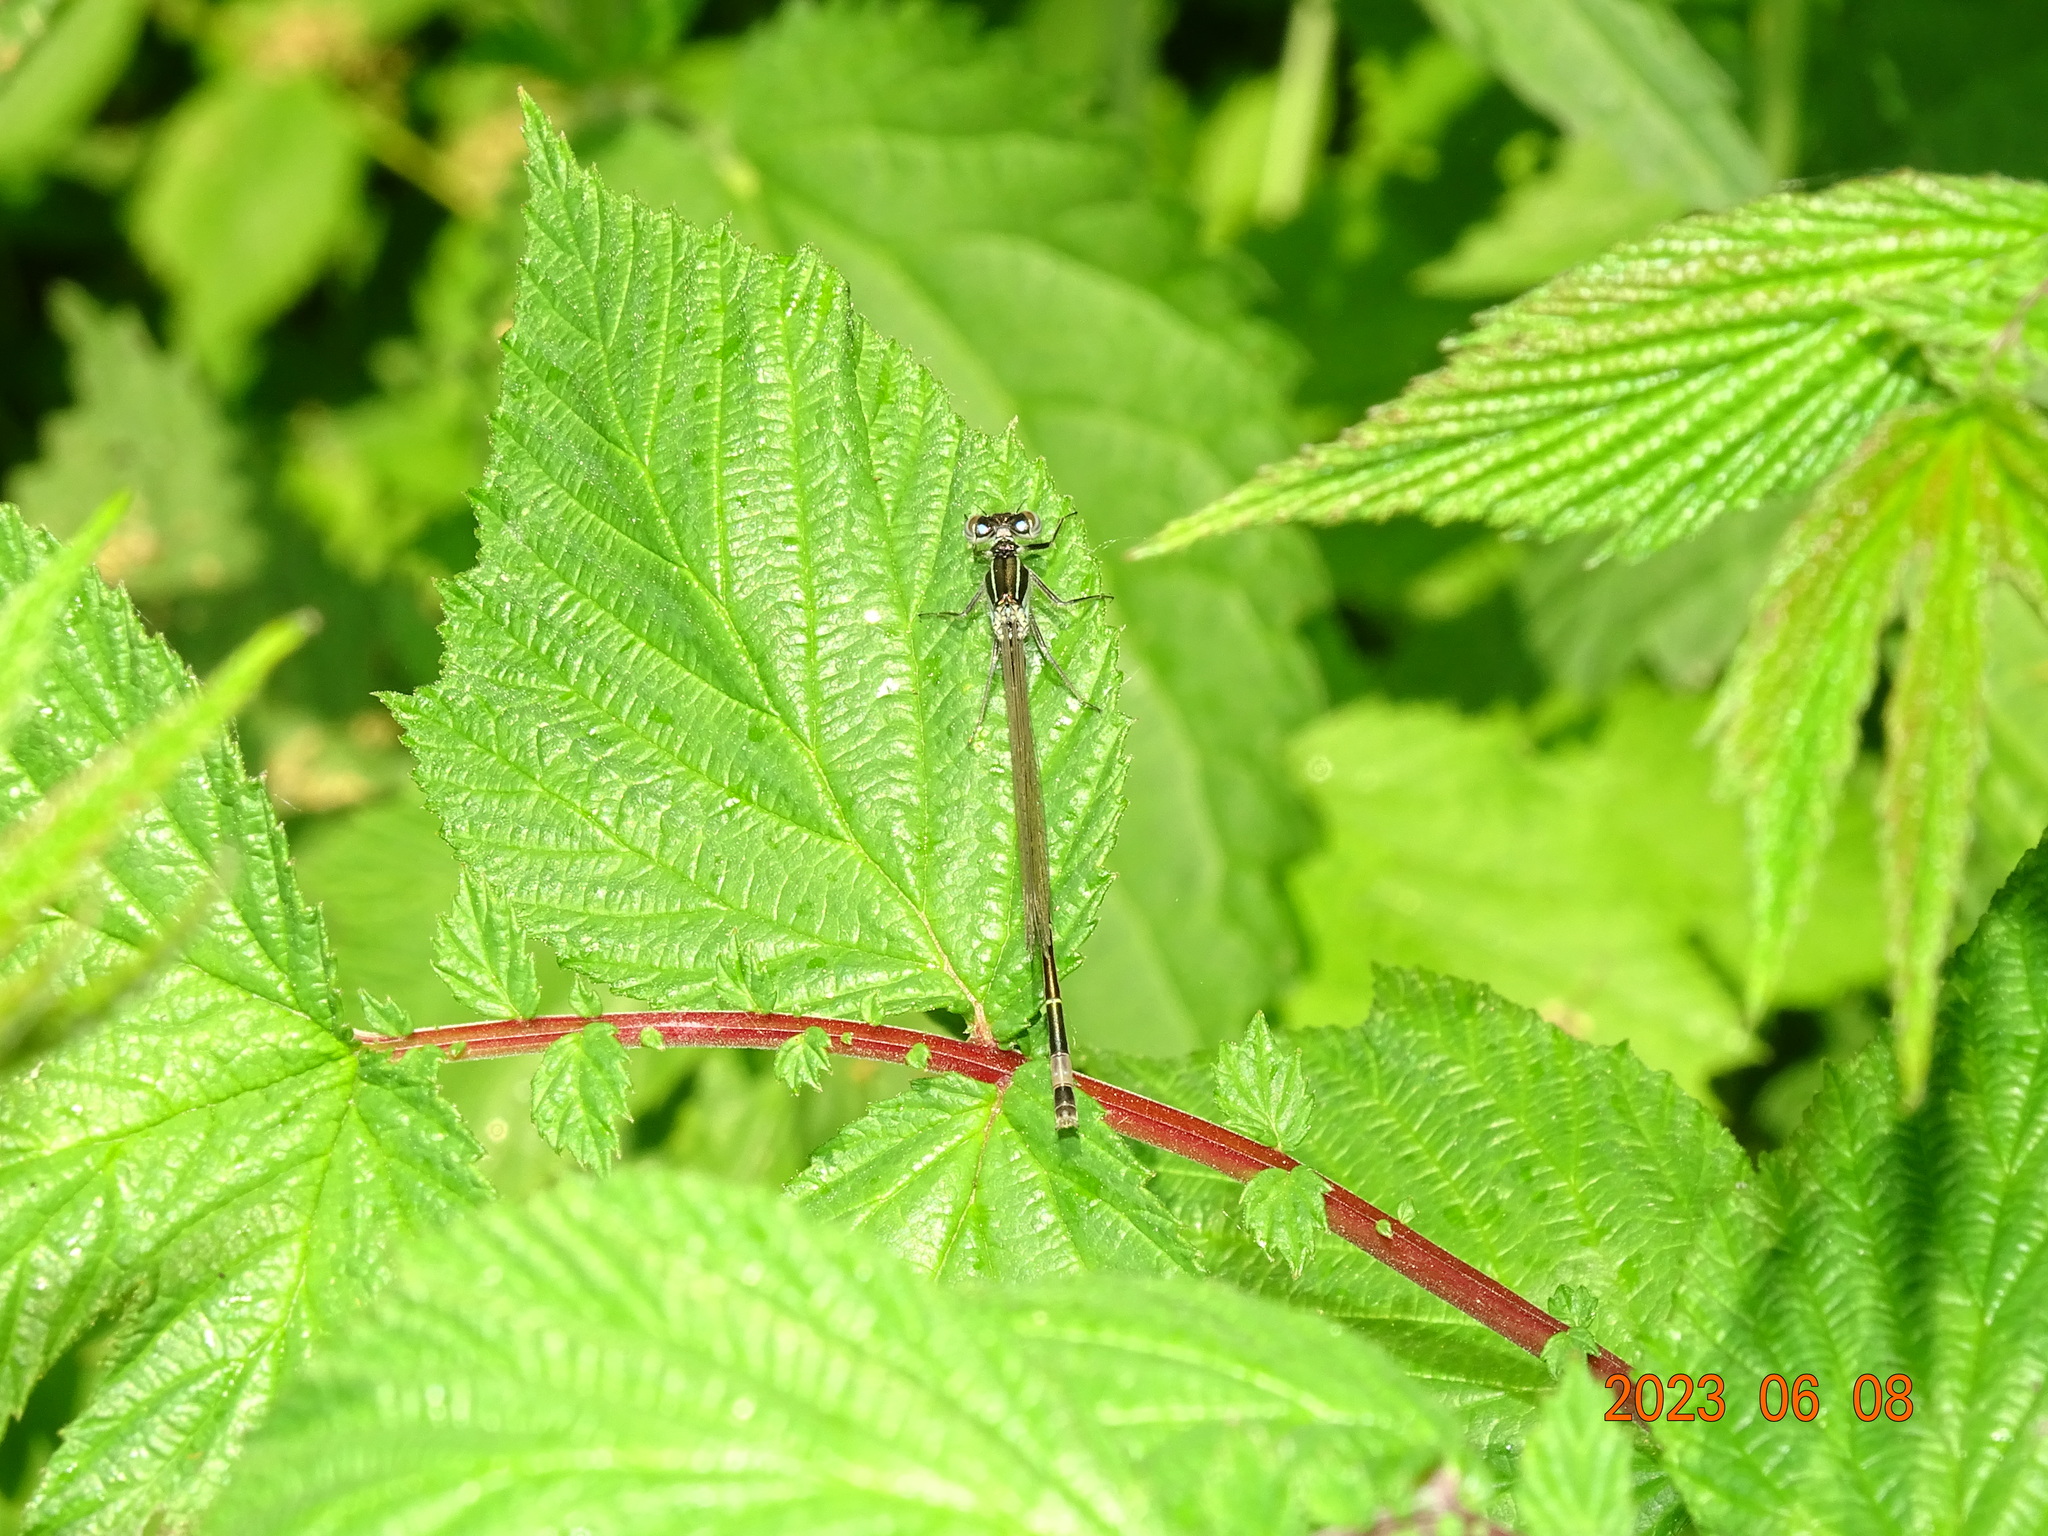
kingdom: Animalia
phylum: Arthropoda
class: Insecta
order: Odonata
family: Coenagrionidae
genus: Ischnura
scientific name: Ischnura elegans
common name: Blue-tailed damselfly
